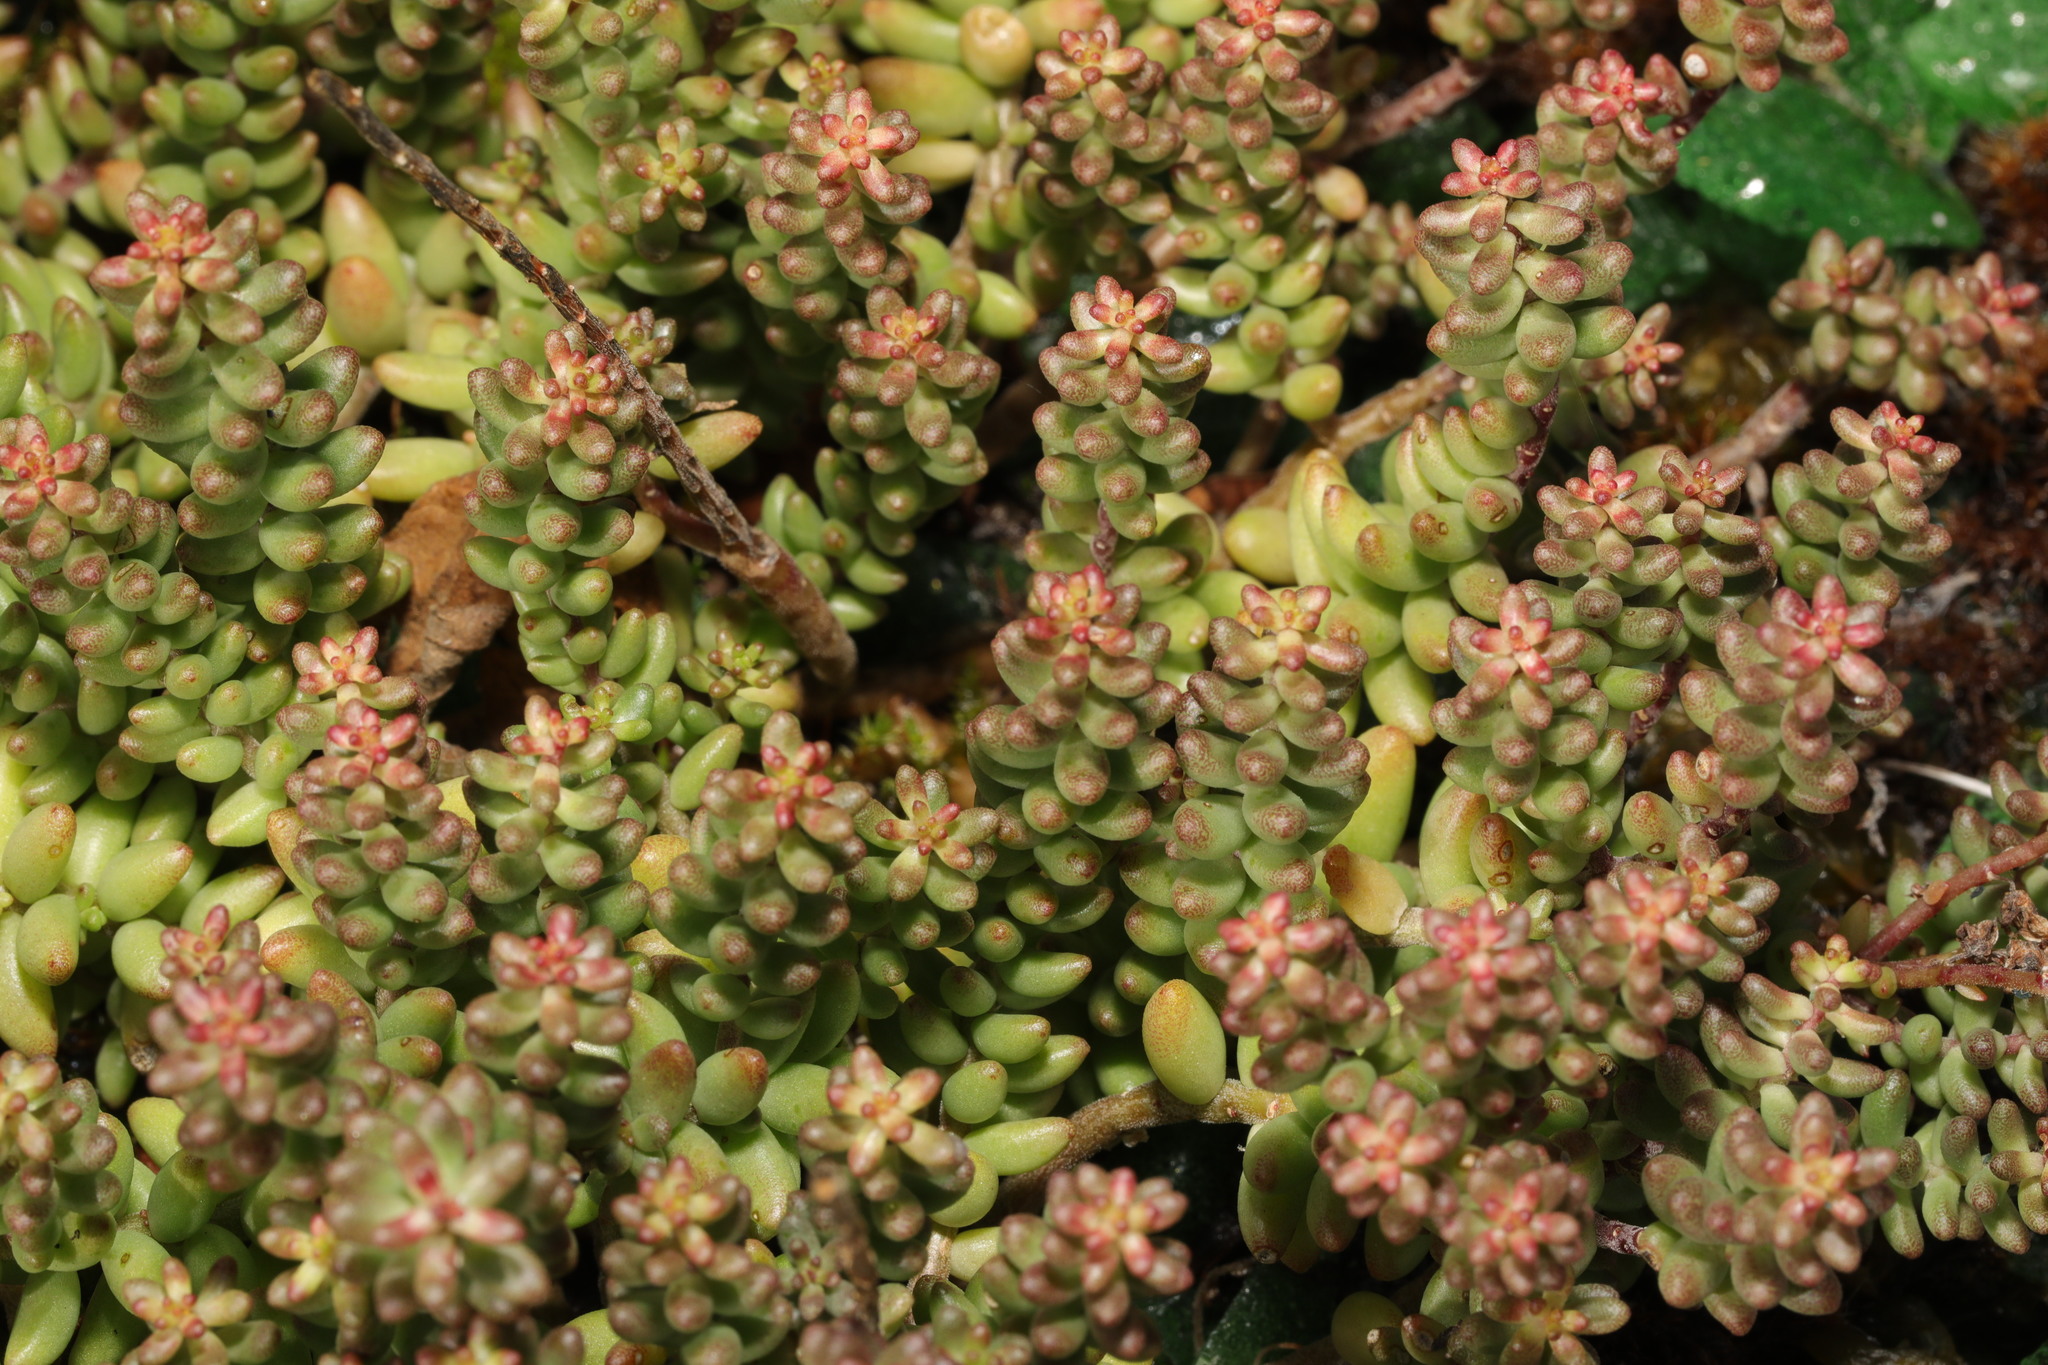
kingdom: Plantae
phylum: Tracheophyta
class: Magnoliopsida
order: Saxifragales
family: Crassulaceae
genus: Sedum
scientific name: Sedum album
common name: White stonecrop
